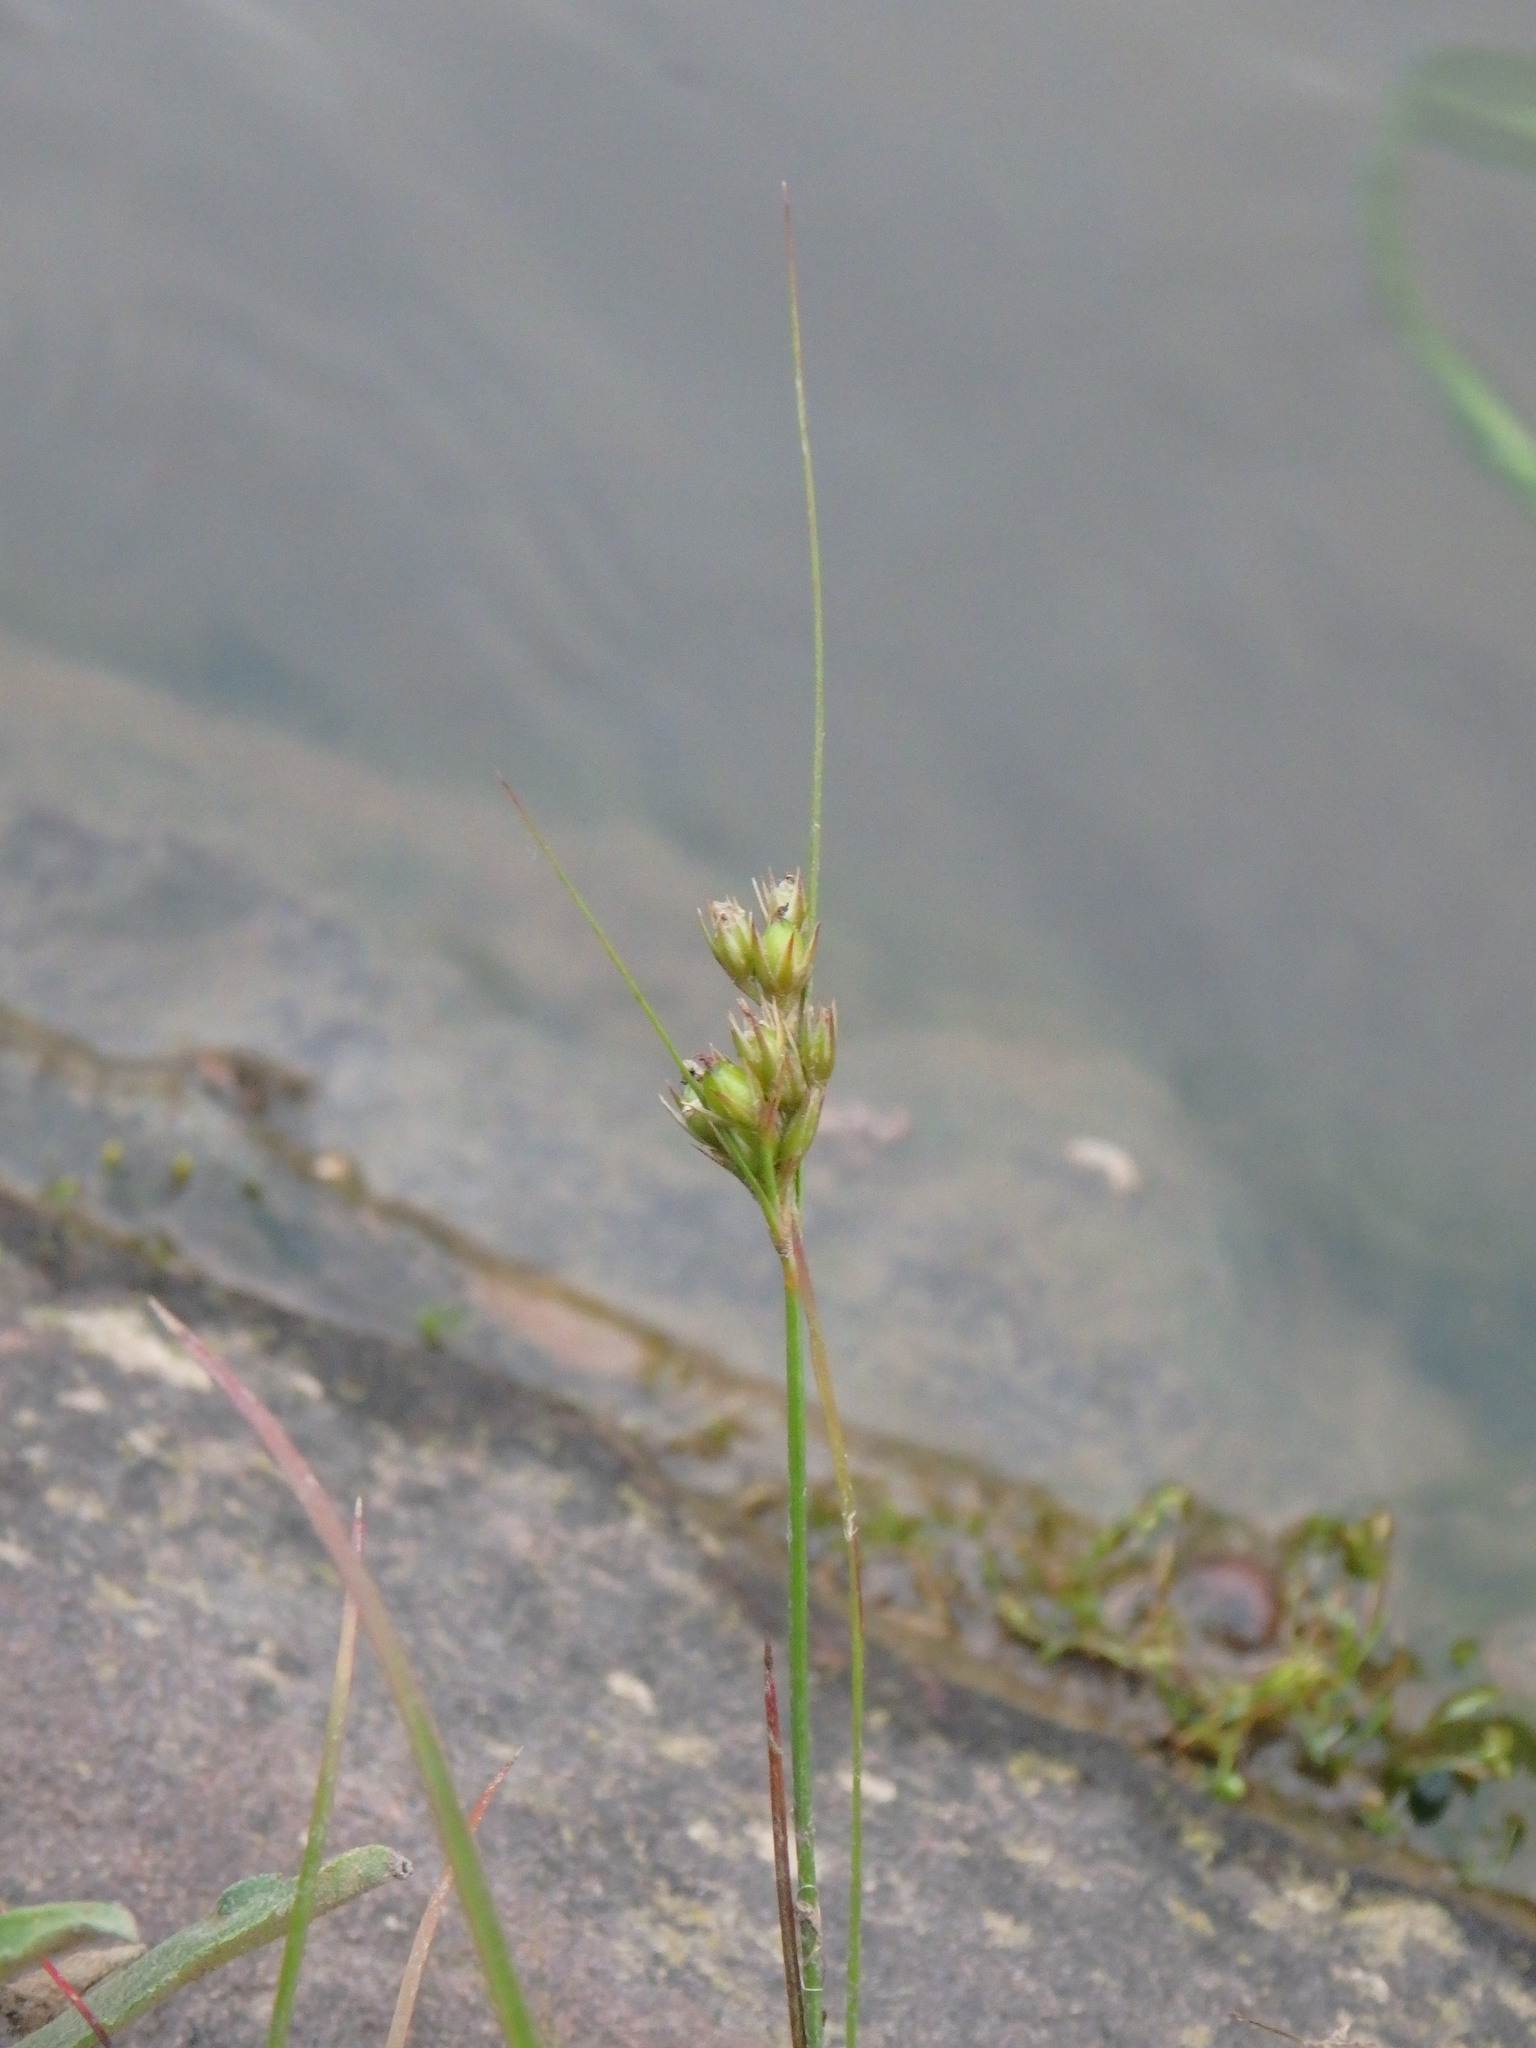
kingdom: Plantae
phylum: Tracheophyta
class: Liliopsida
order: Poales
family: Juncaceae
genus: Juncus
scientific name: Juncus tenuis
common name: Slender rush
